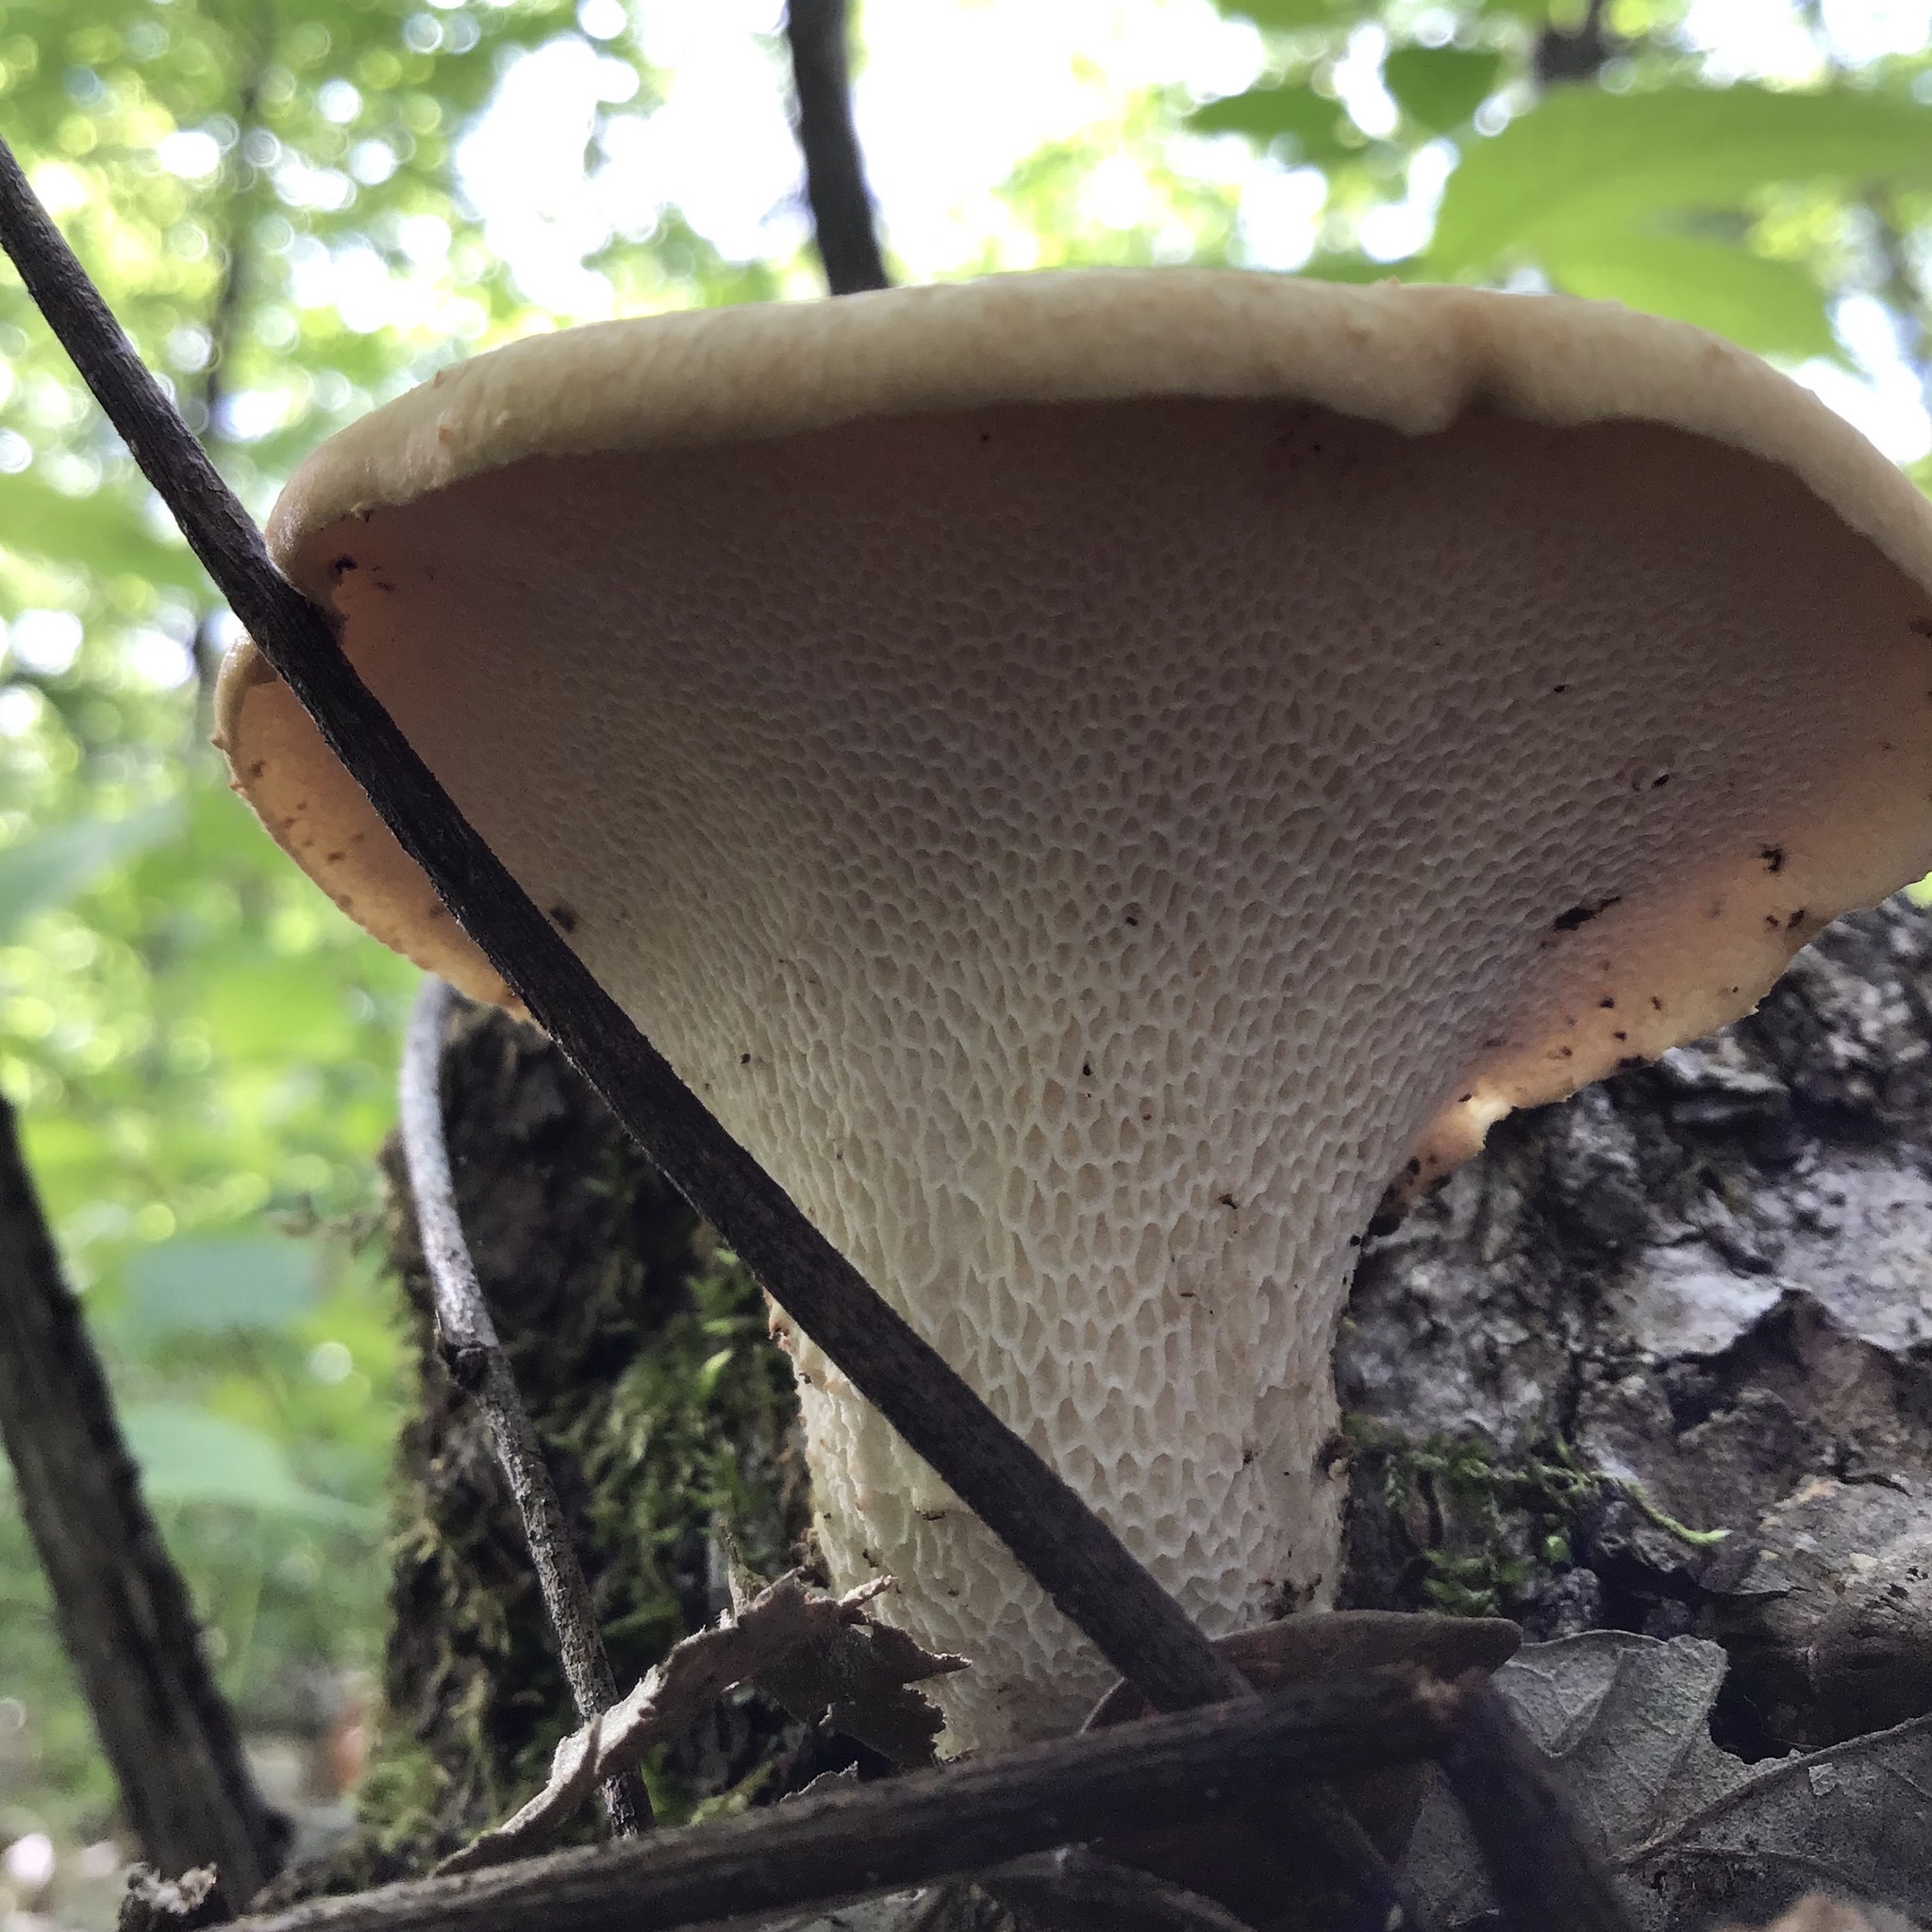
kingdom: Fungi
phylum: Basidiomycota
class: Agaricomycetes
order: Polyporales
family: Polyporaceae
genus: Cerioporus
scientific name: Cerioporus squamosus
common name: Dryad's saddle
